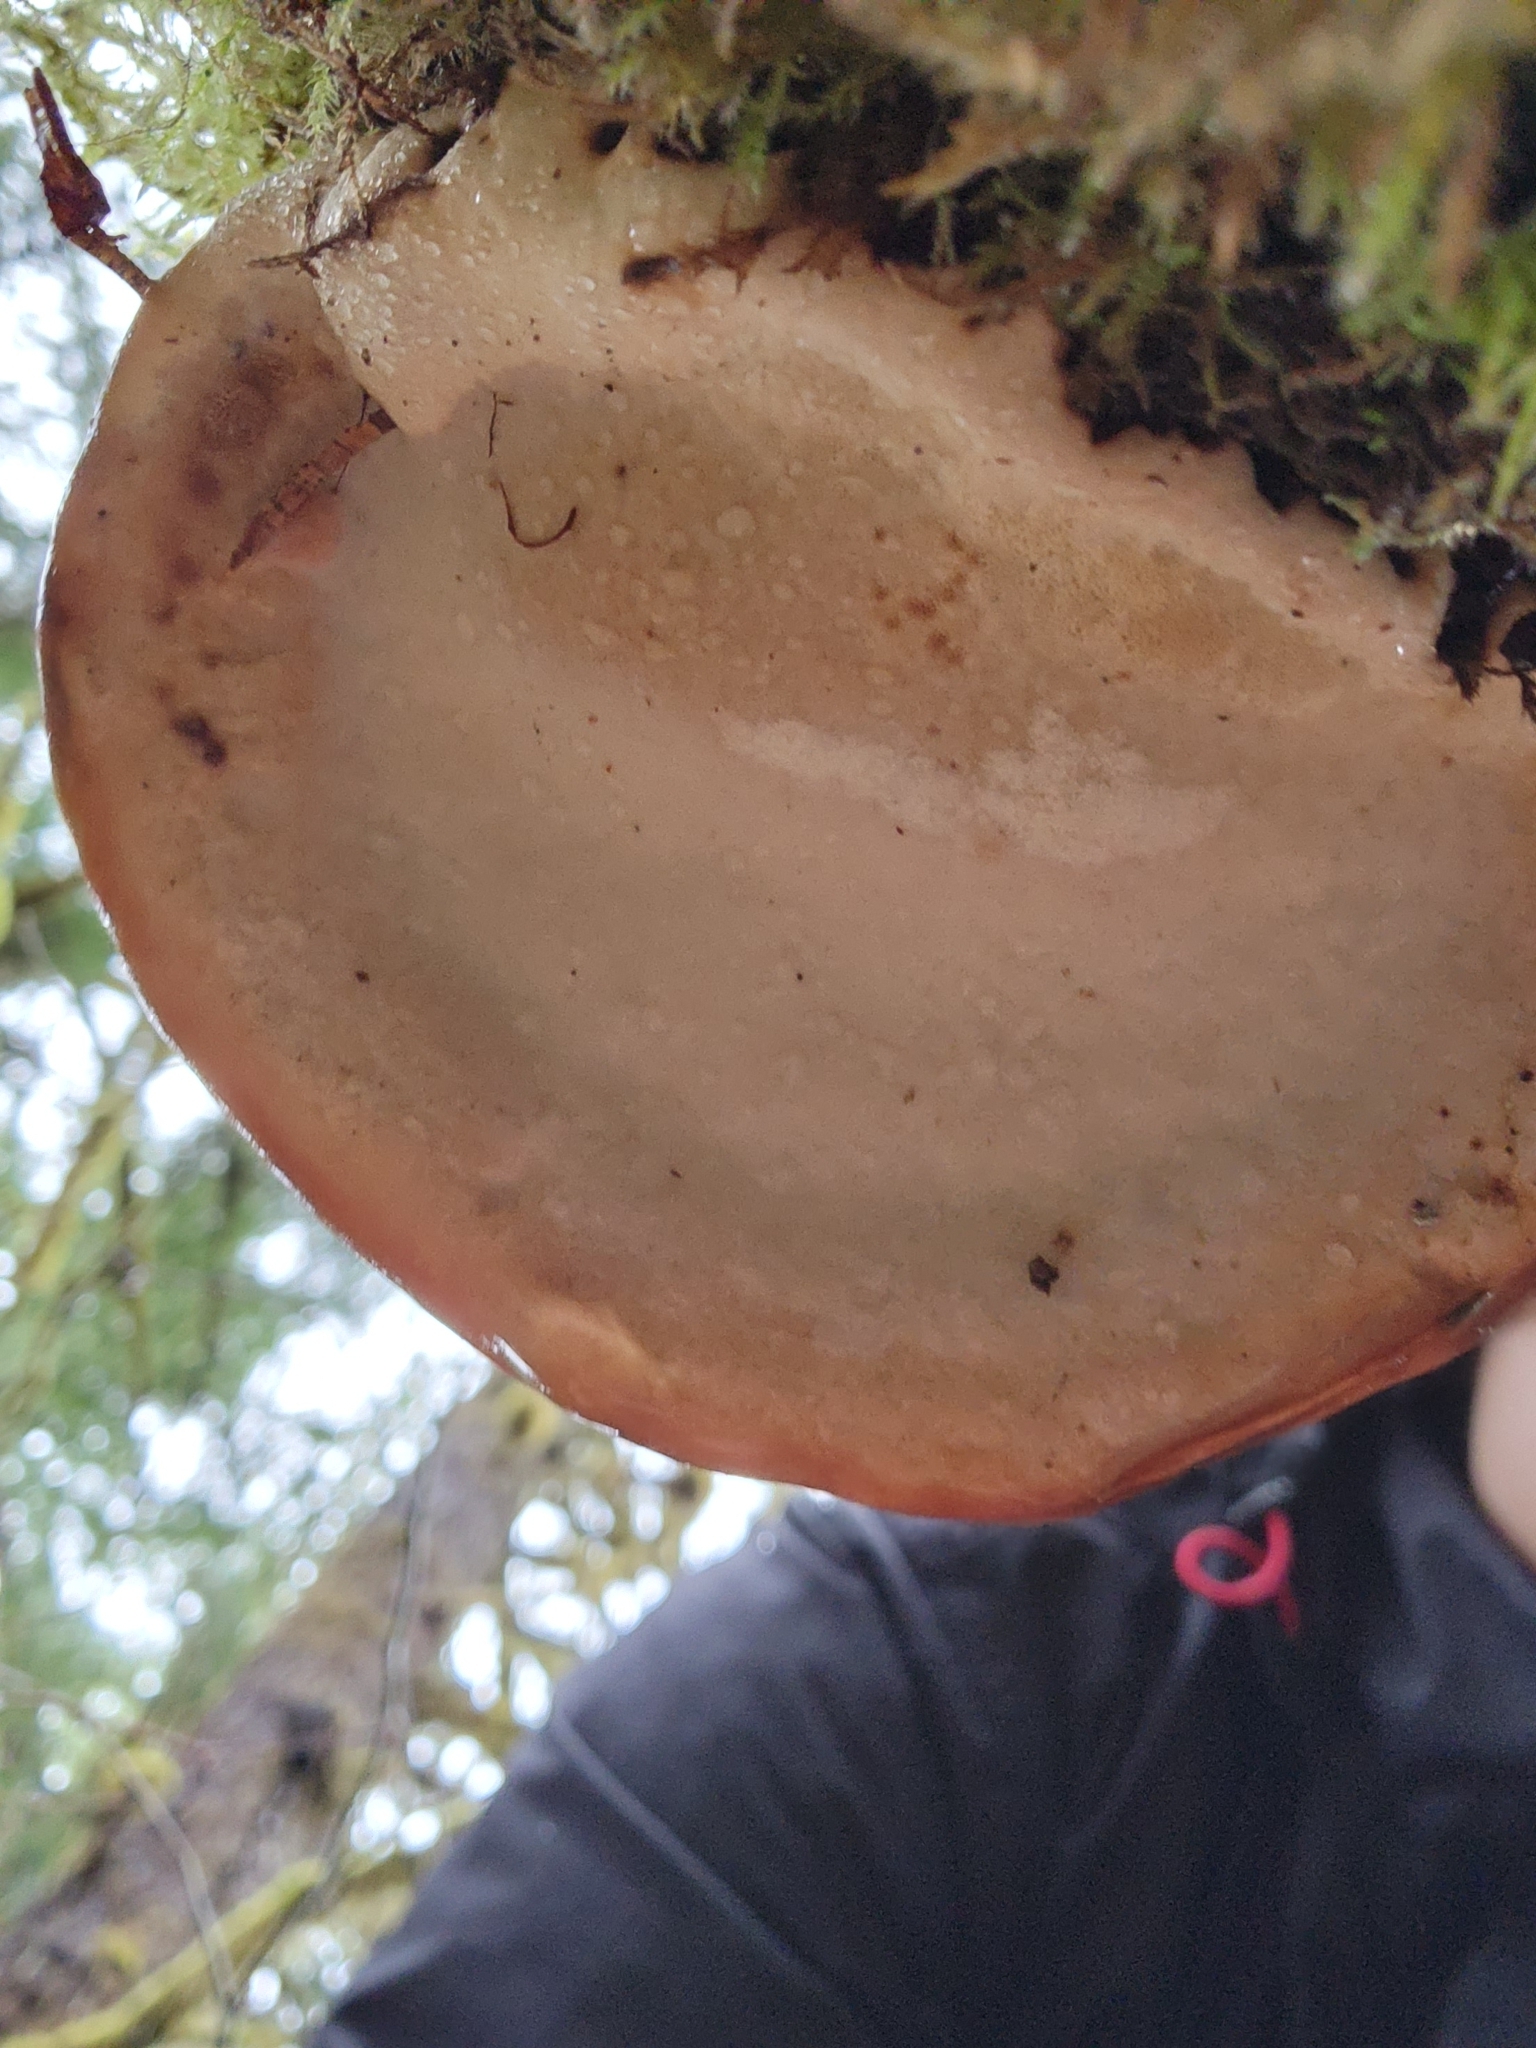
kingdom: Fungi
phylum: Basidiomycota
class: Agaricomycetes
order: Polyporales
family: Fomitopsidaceae
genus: Fomitopsis
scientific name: Fomitopsis mounceae
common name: Northern red belt
